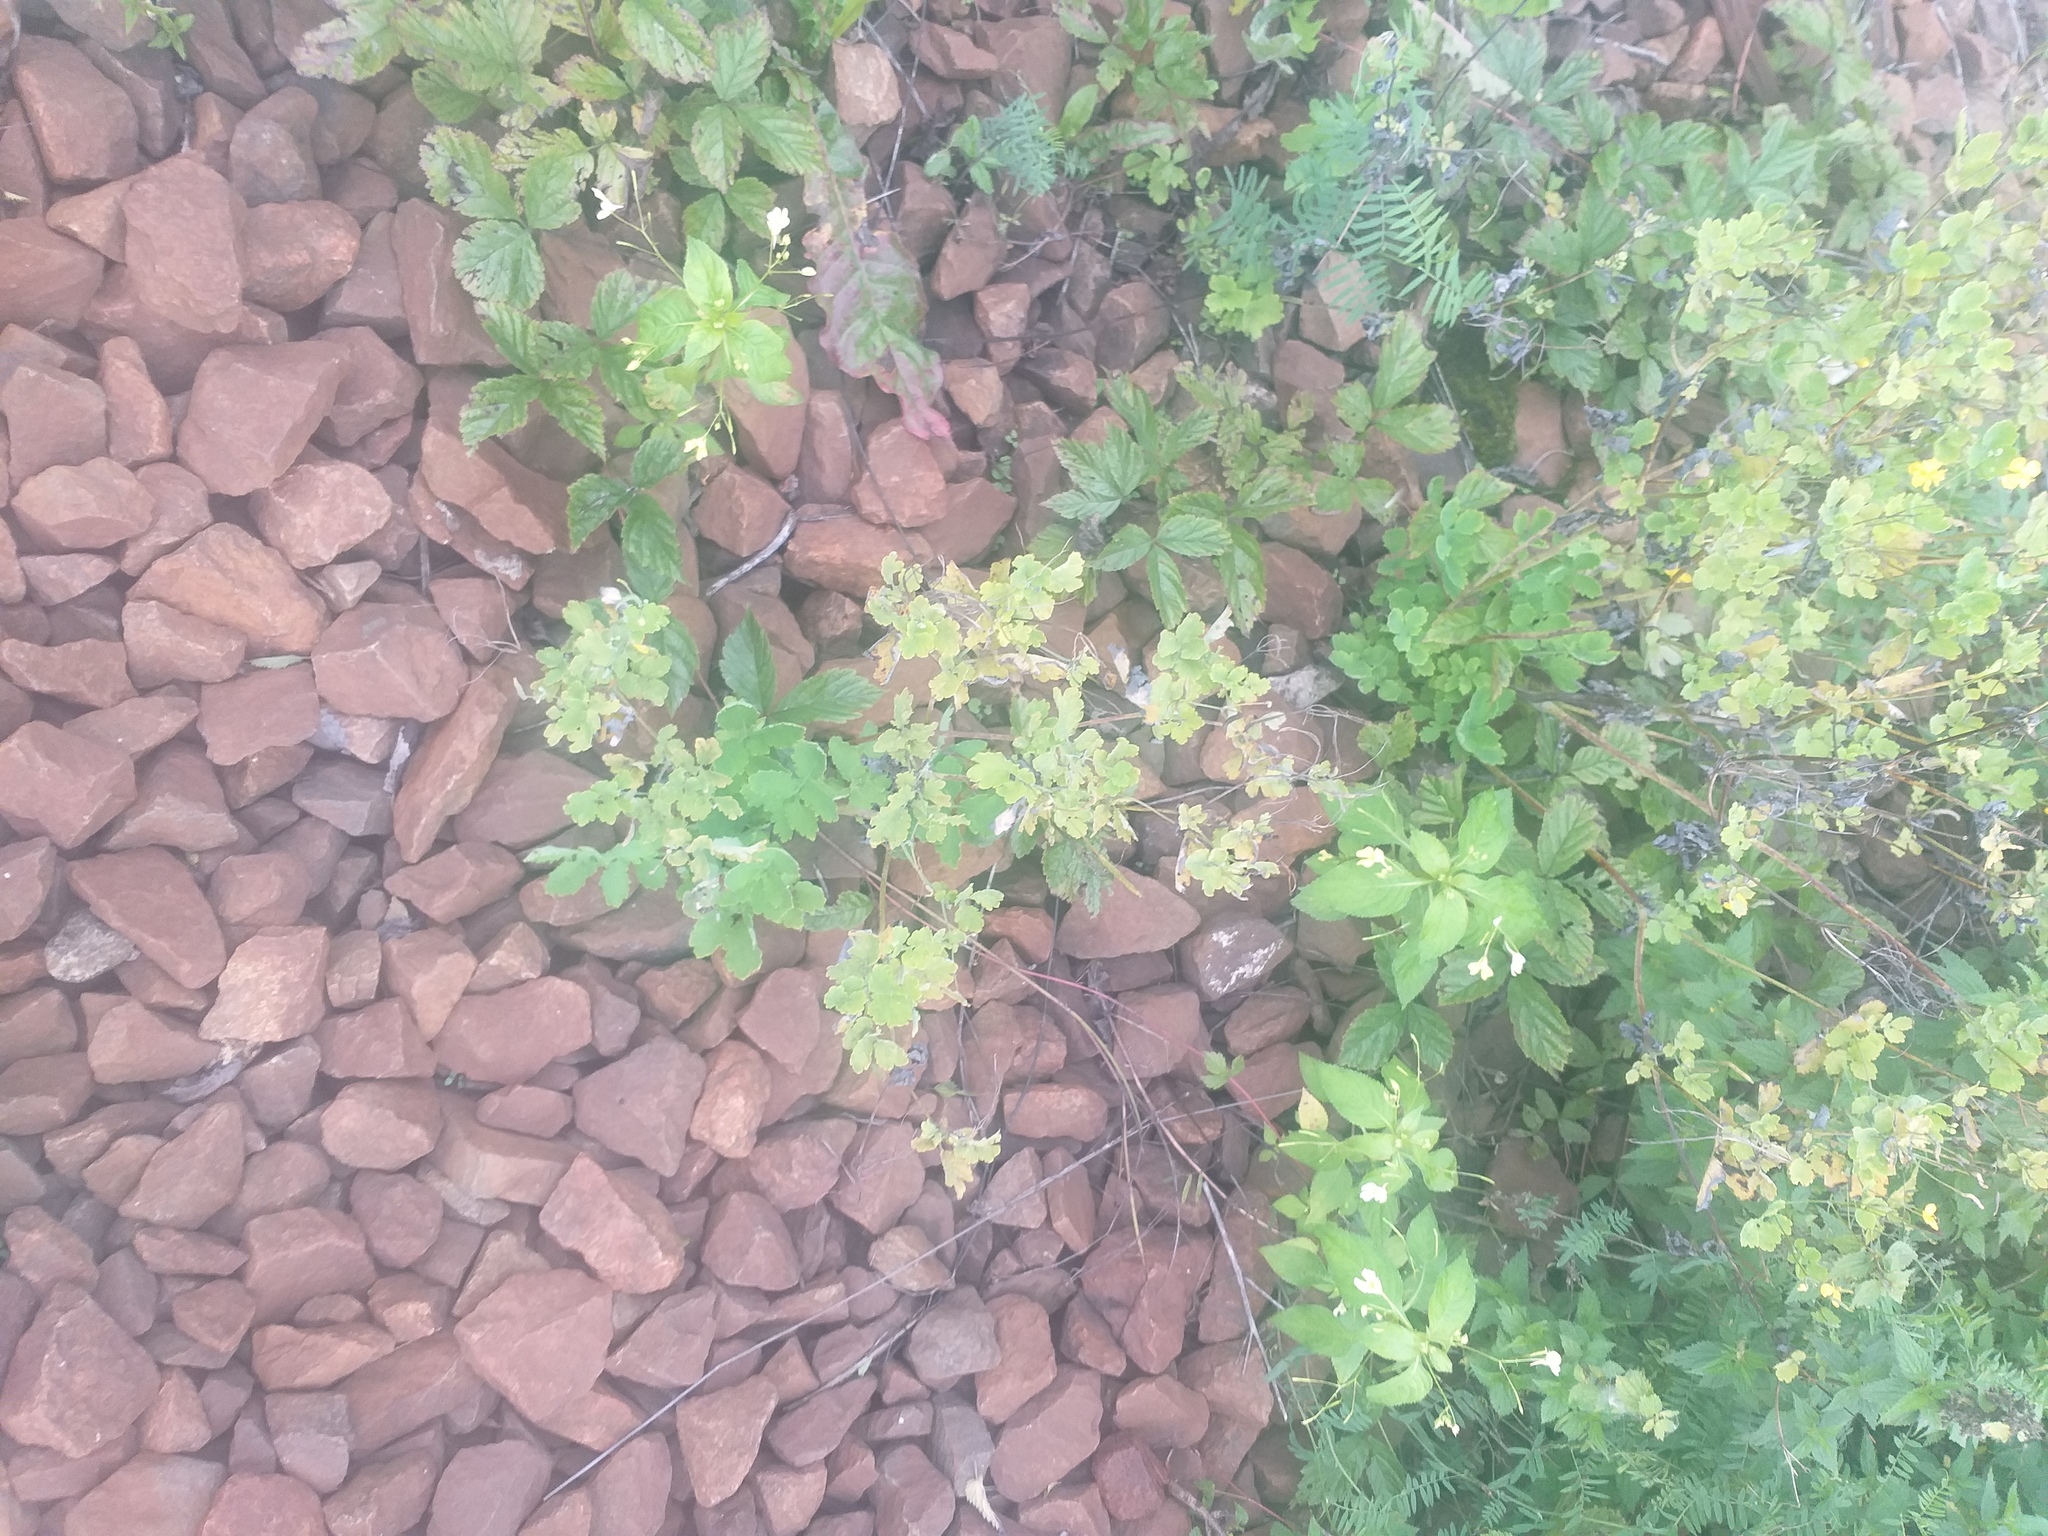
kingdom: Plantae
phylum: Tracheophyta
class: Magnoliopsida
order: Ranunculales
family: Papaveraceae
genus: Chelidonium
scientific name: Chelidonium majus
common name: Greater celandine
